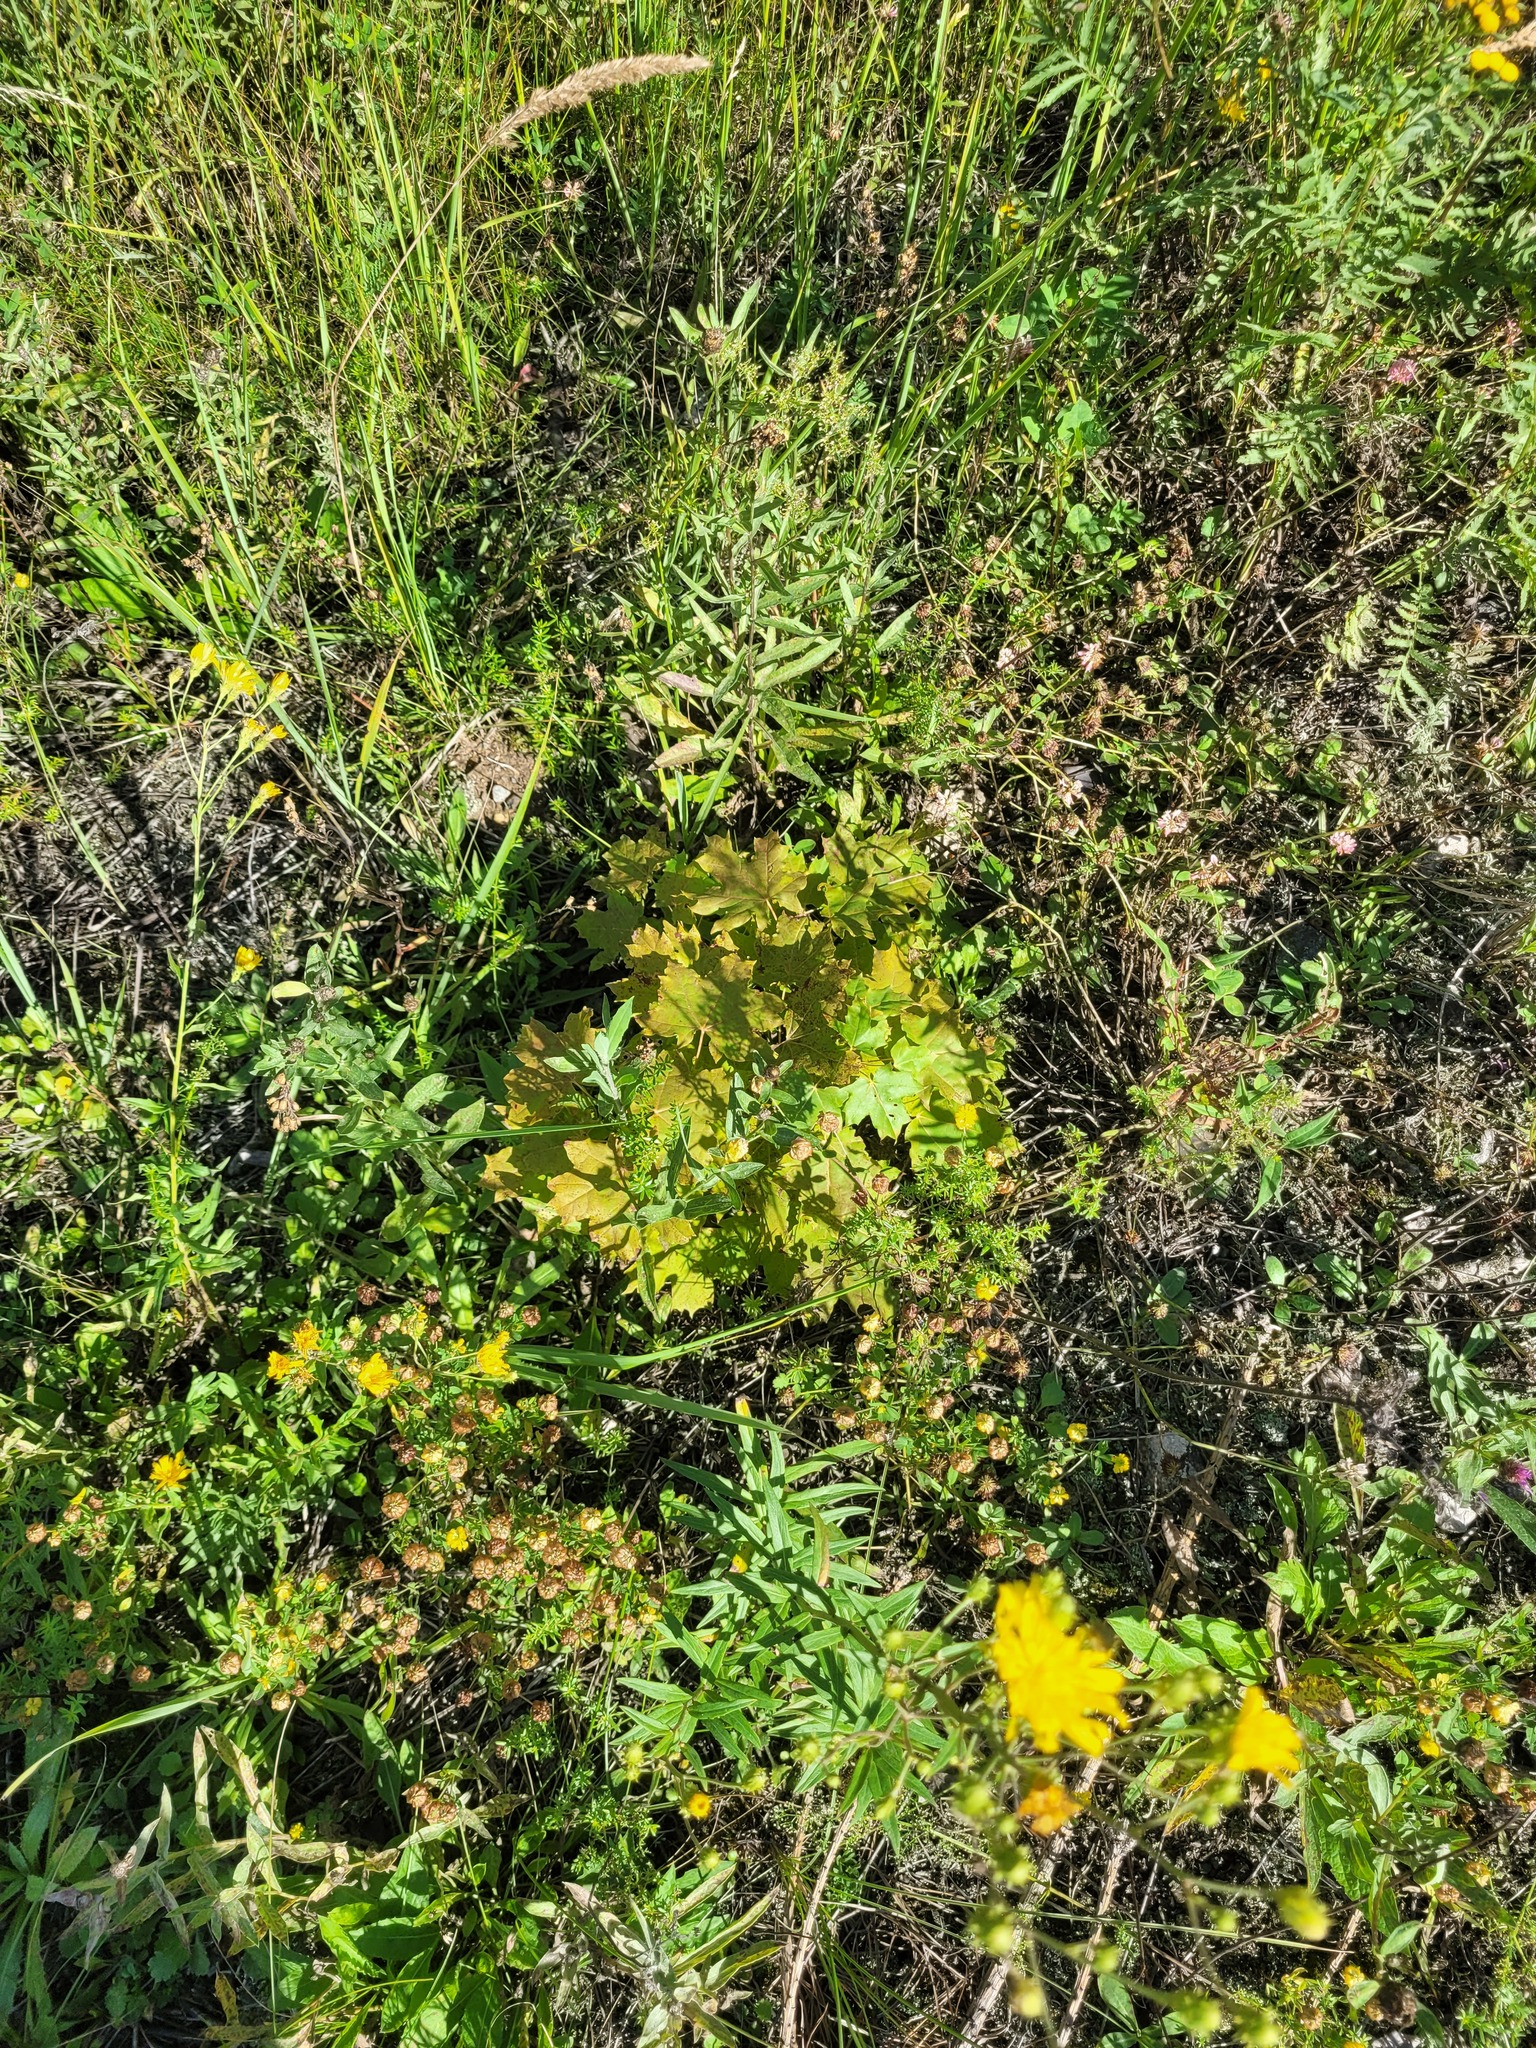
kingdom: Plantae
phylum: Tracheophyta
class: Magnoliopsida
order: Sapindales
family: Sapindaceae
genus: Acer
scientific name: Acer platanoides
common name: Norway maple
